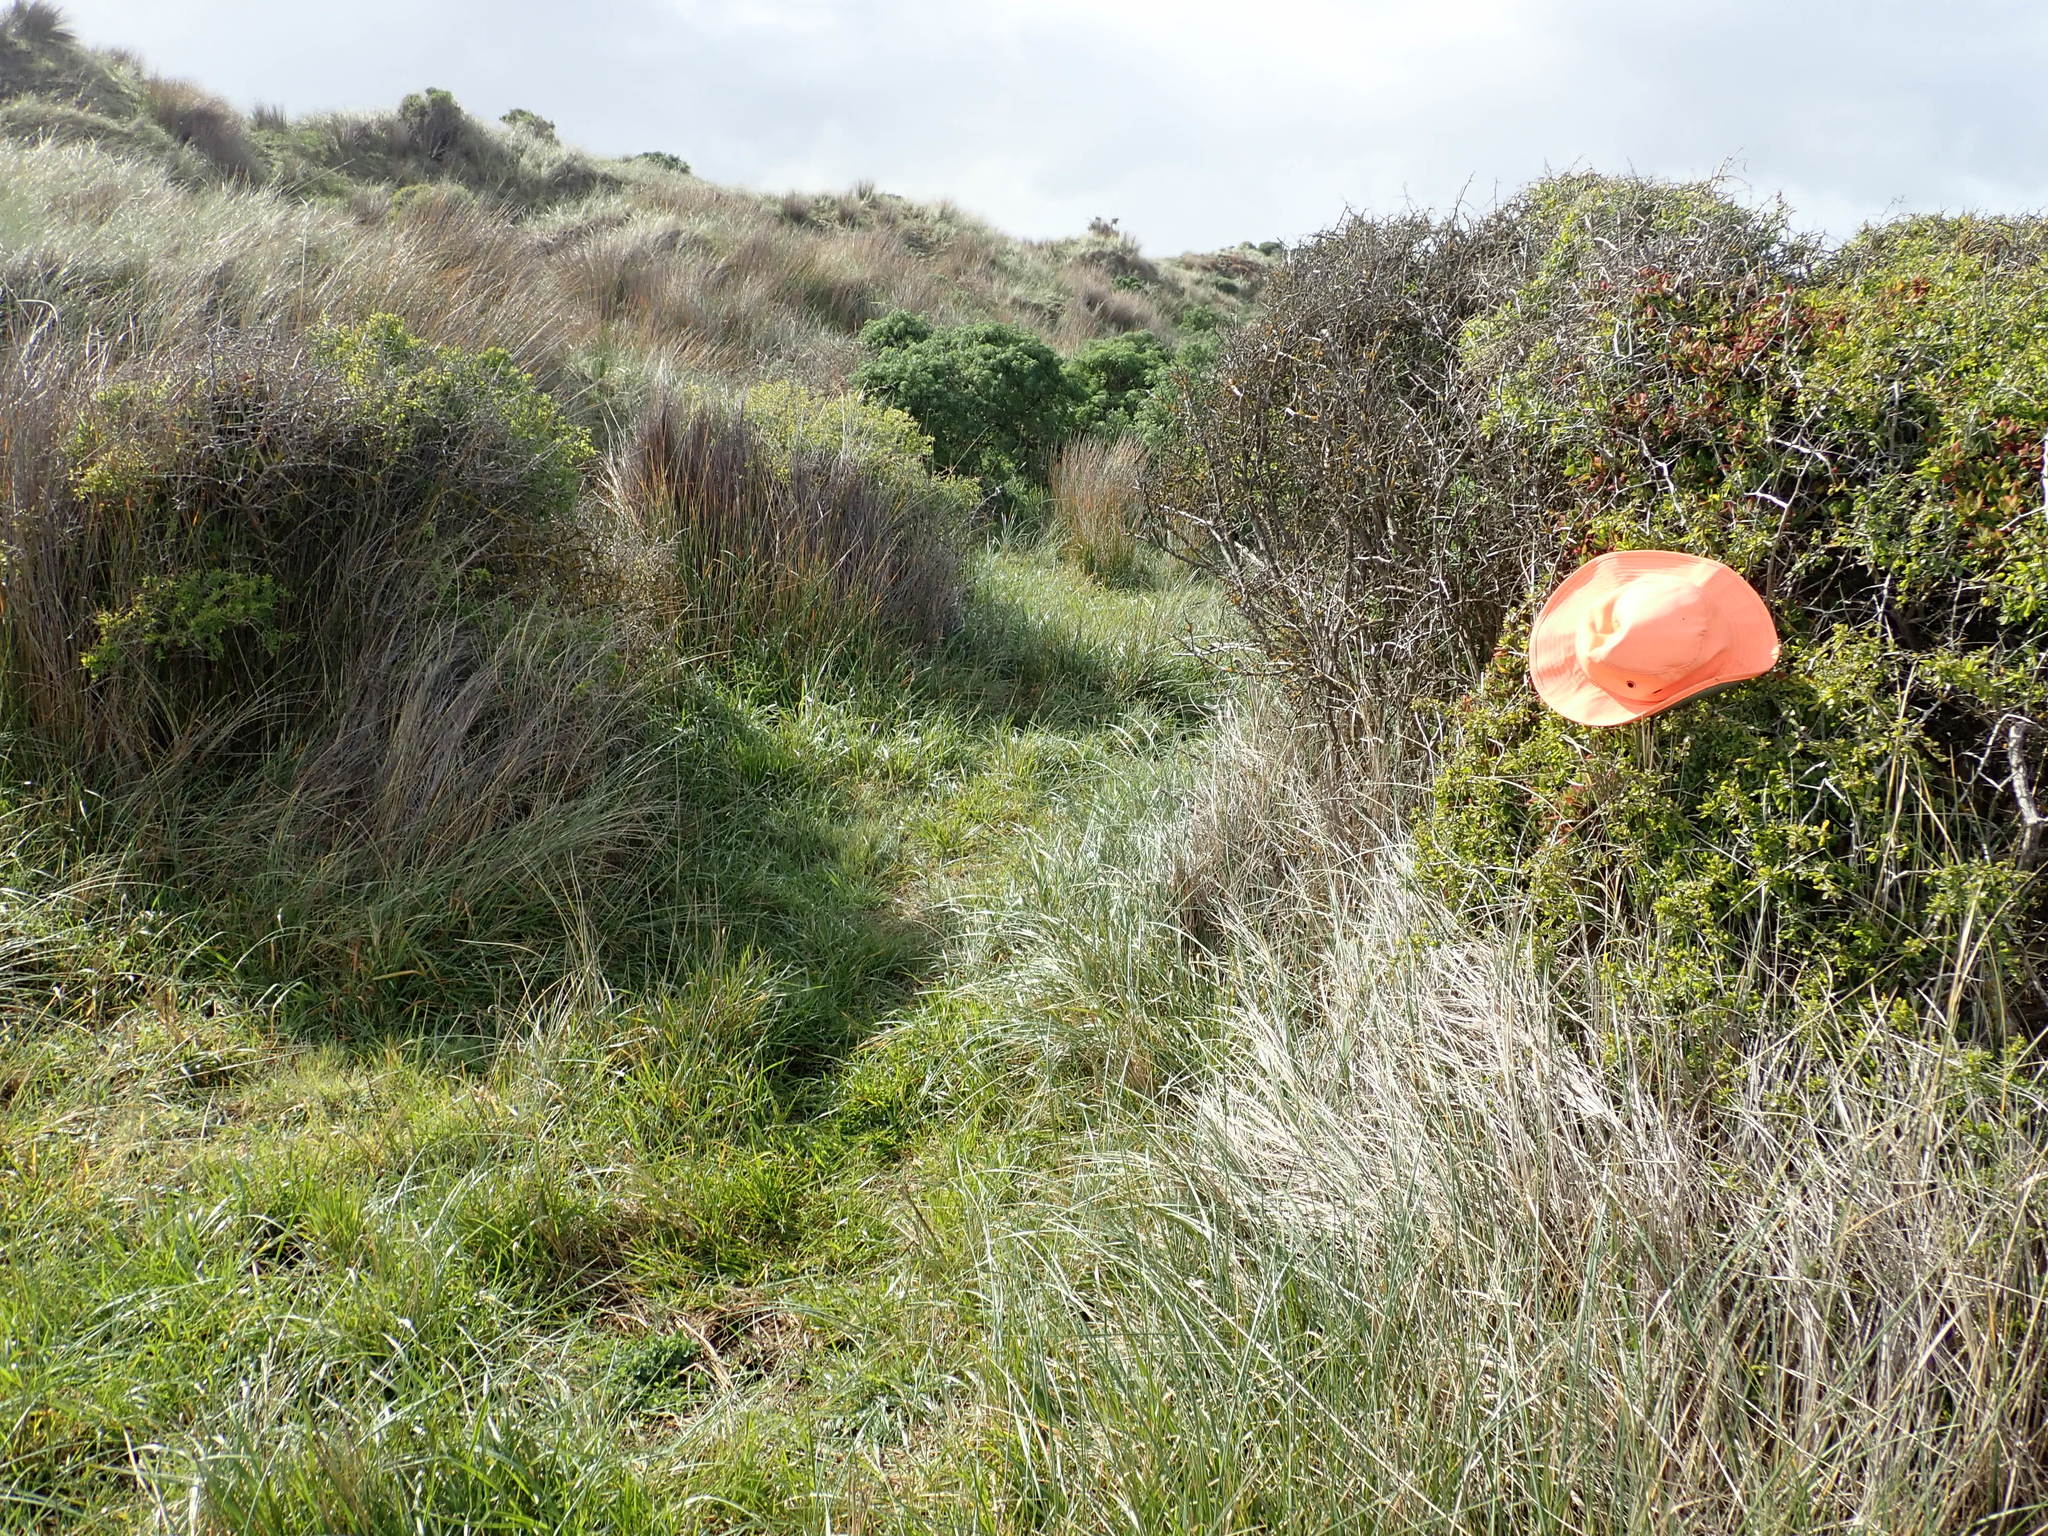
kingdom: Plantae
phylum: Tracheophyta
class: Magnoliopsida
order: Caryophyllales
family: Aizoaceae
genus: Tetragonia
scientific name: Tetragonia implexicoma
